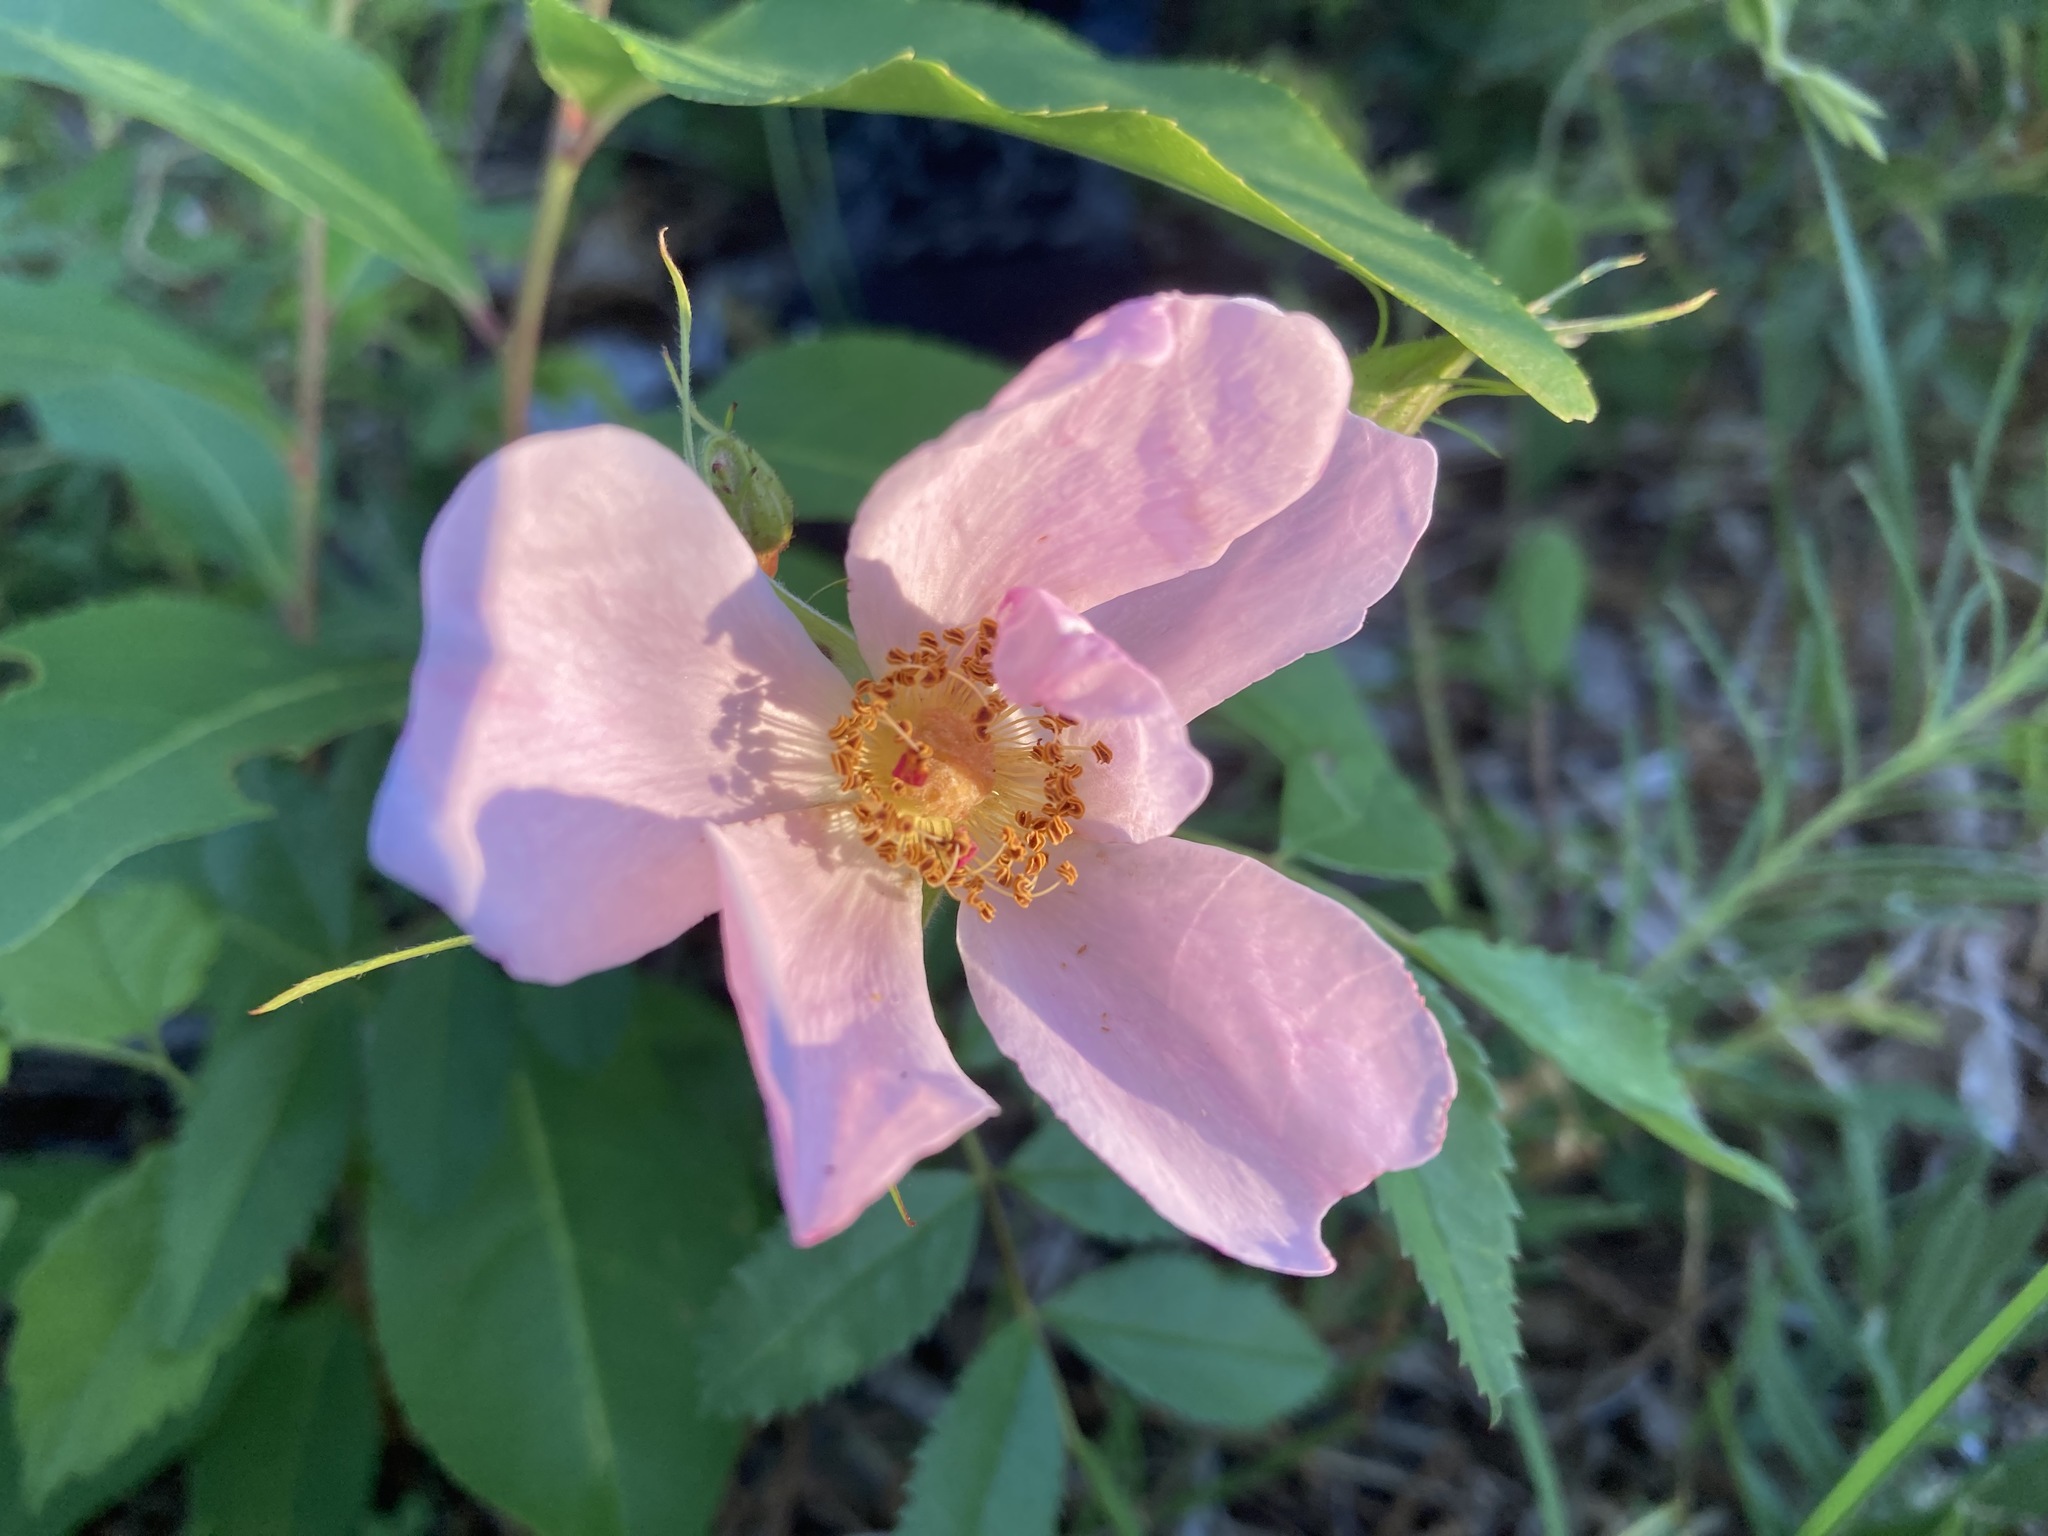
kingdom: Plantae
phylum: Tracheophyta
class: Magnoliopsida
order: Rosales
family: Rosaceae
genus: Rosa
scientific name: Rosa carolina
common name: Pasture rose
